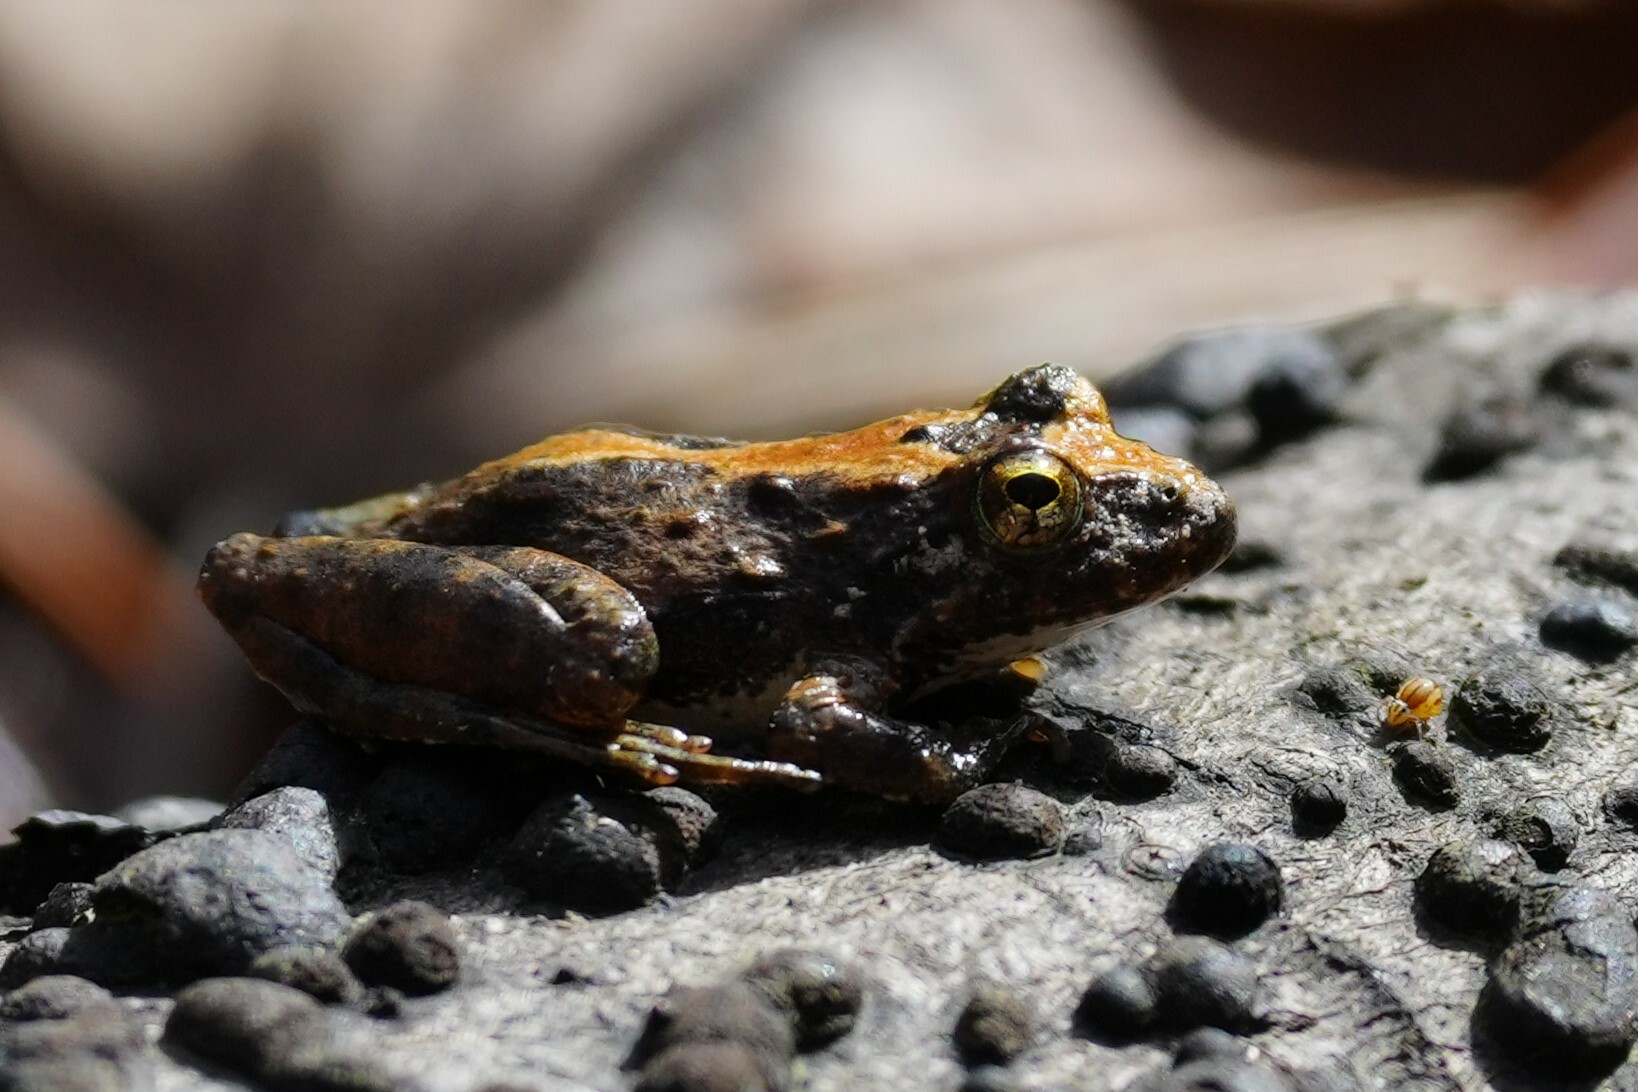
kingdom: Animalia
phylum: Chordata
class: Amphibia
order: Anura
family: Hylidae
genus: Acris
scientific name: Acris blanchardi
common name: Blanchard's cricket frog
